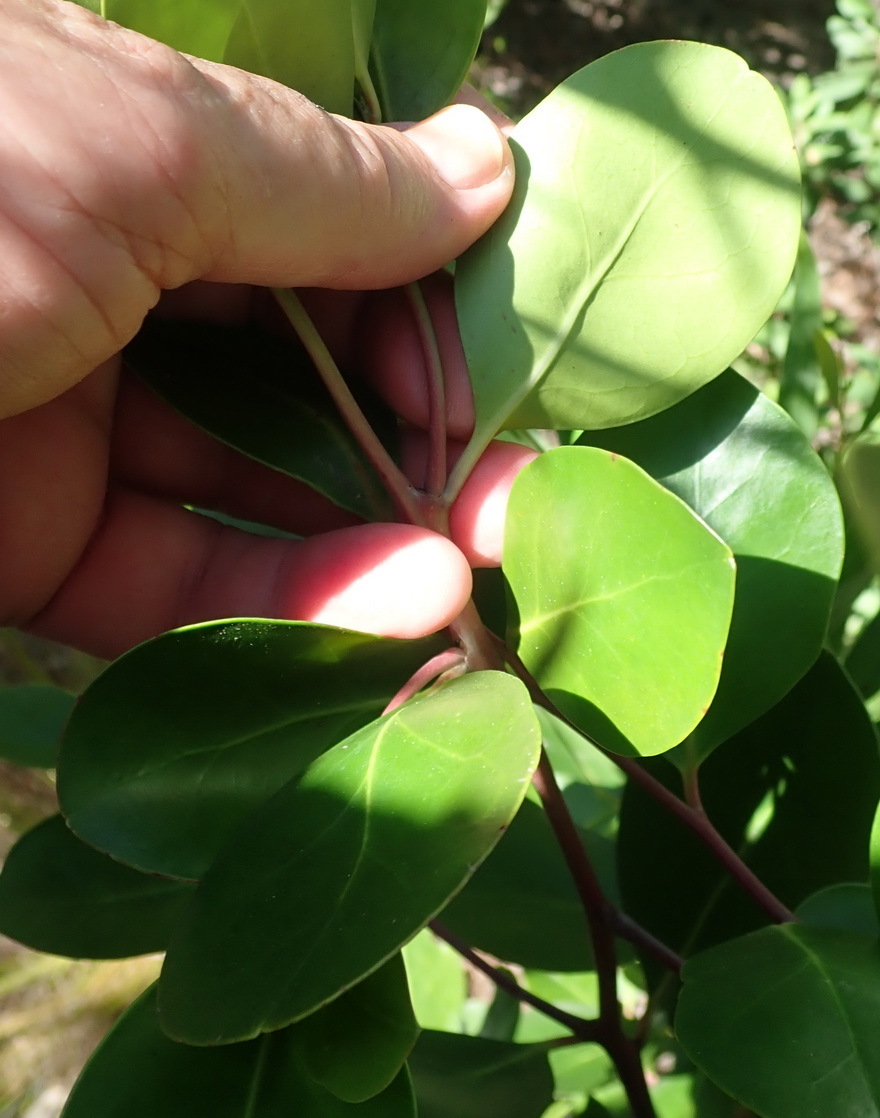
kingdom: Plantae
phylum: Tracheophyta
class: Magnoliopsida
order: Celastrales
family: Celastraceae
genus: Pterocelastrus
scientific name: Pterocelastrus tricuspidatus
